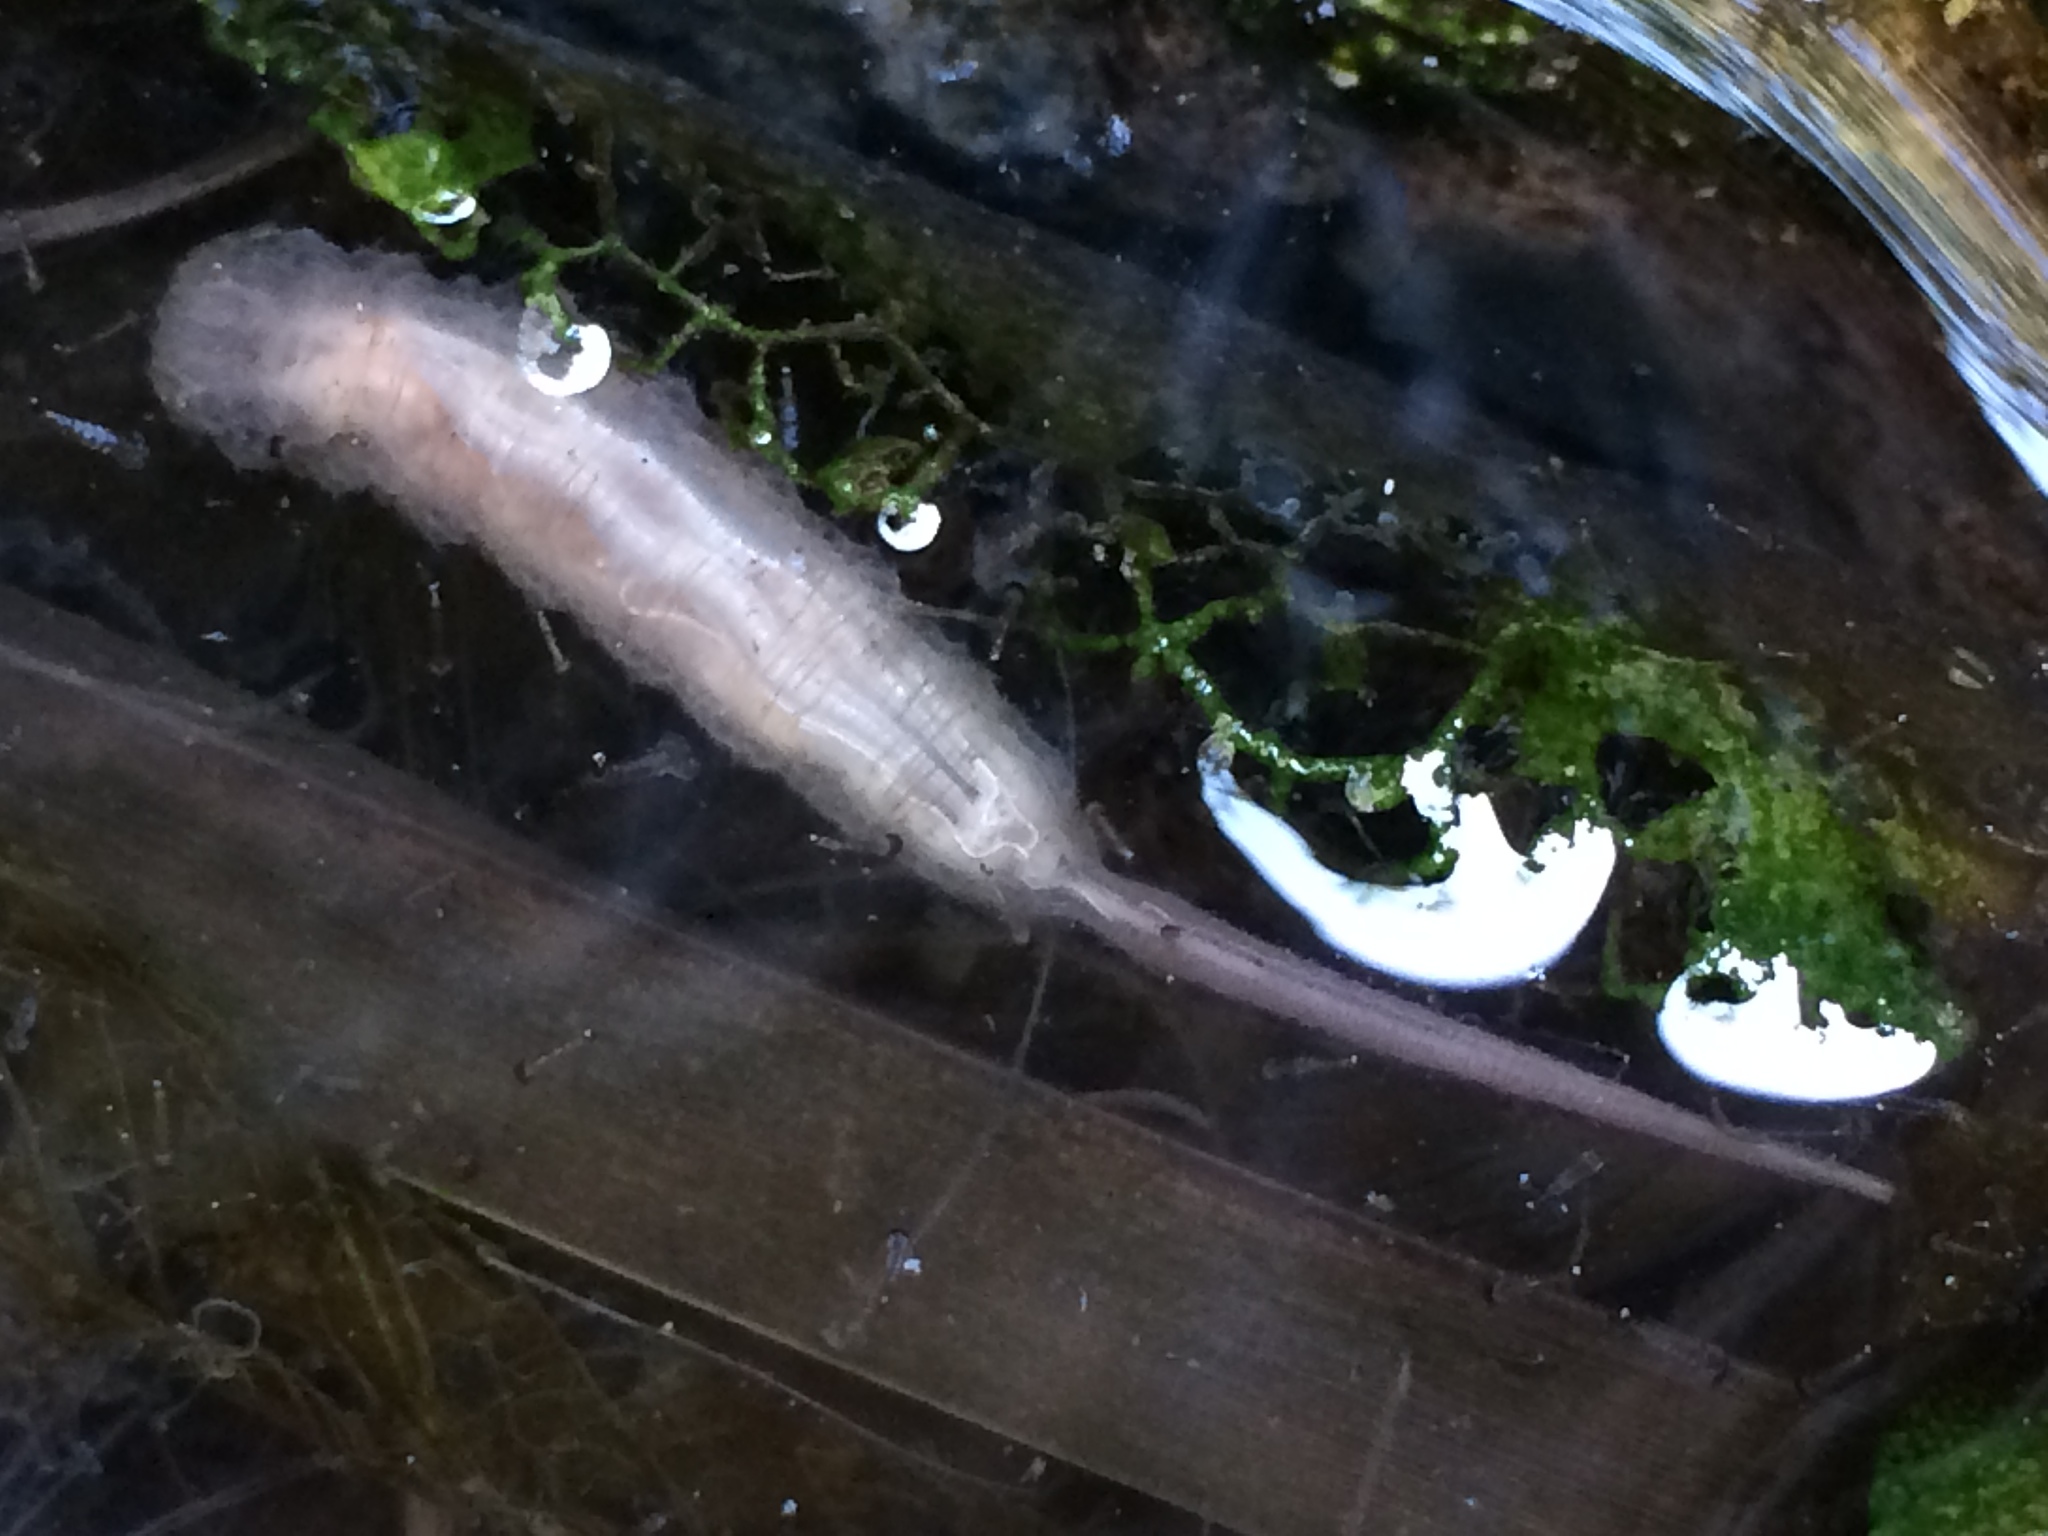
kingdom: Animalia
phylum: Arthropoda
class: Insecta
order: Diptera
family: Syrphidae
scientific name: Syrphidae
